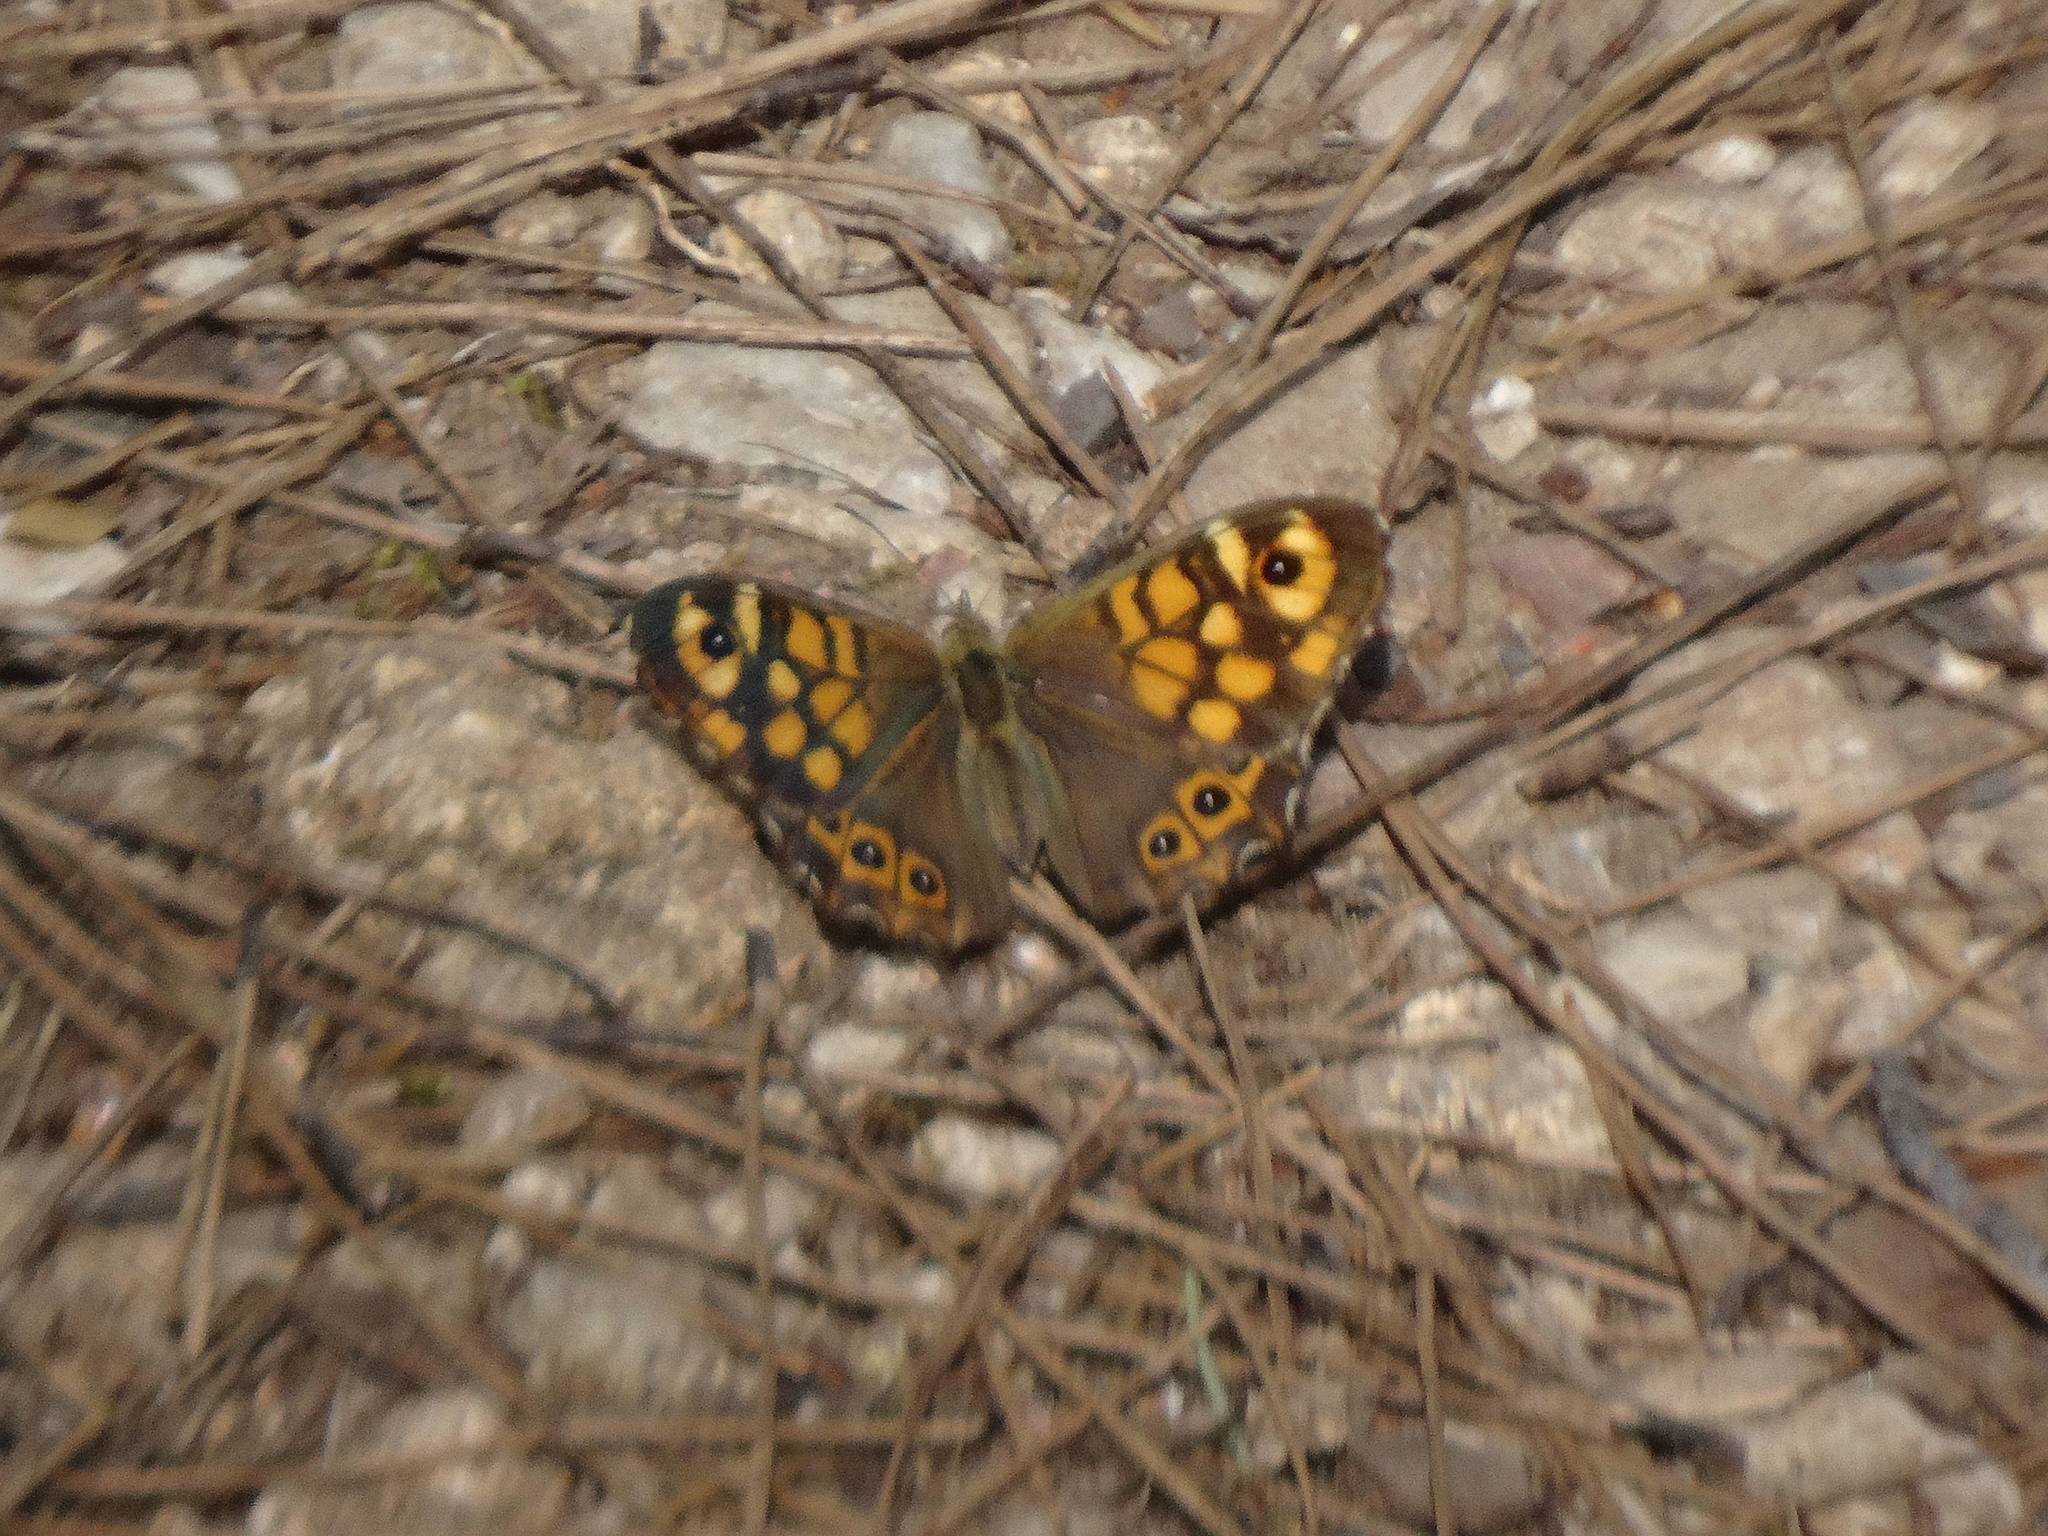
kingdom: Animalia
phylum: Arthropoda
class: Insecta
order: Lepidoptera
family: Nymphalidae
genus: Pararge
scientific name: Pararge aegeria
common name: Speckled wood
